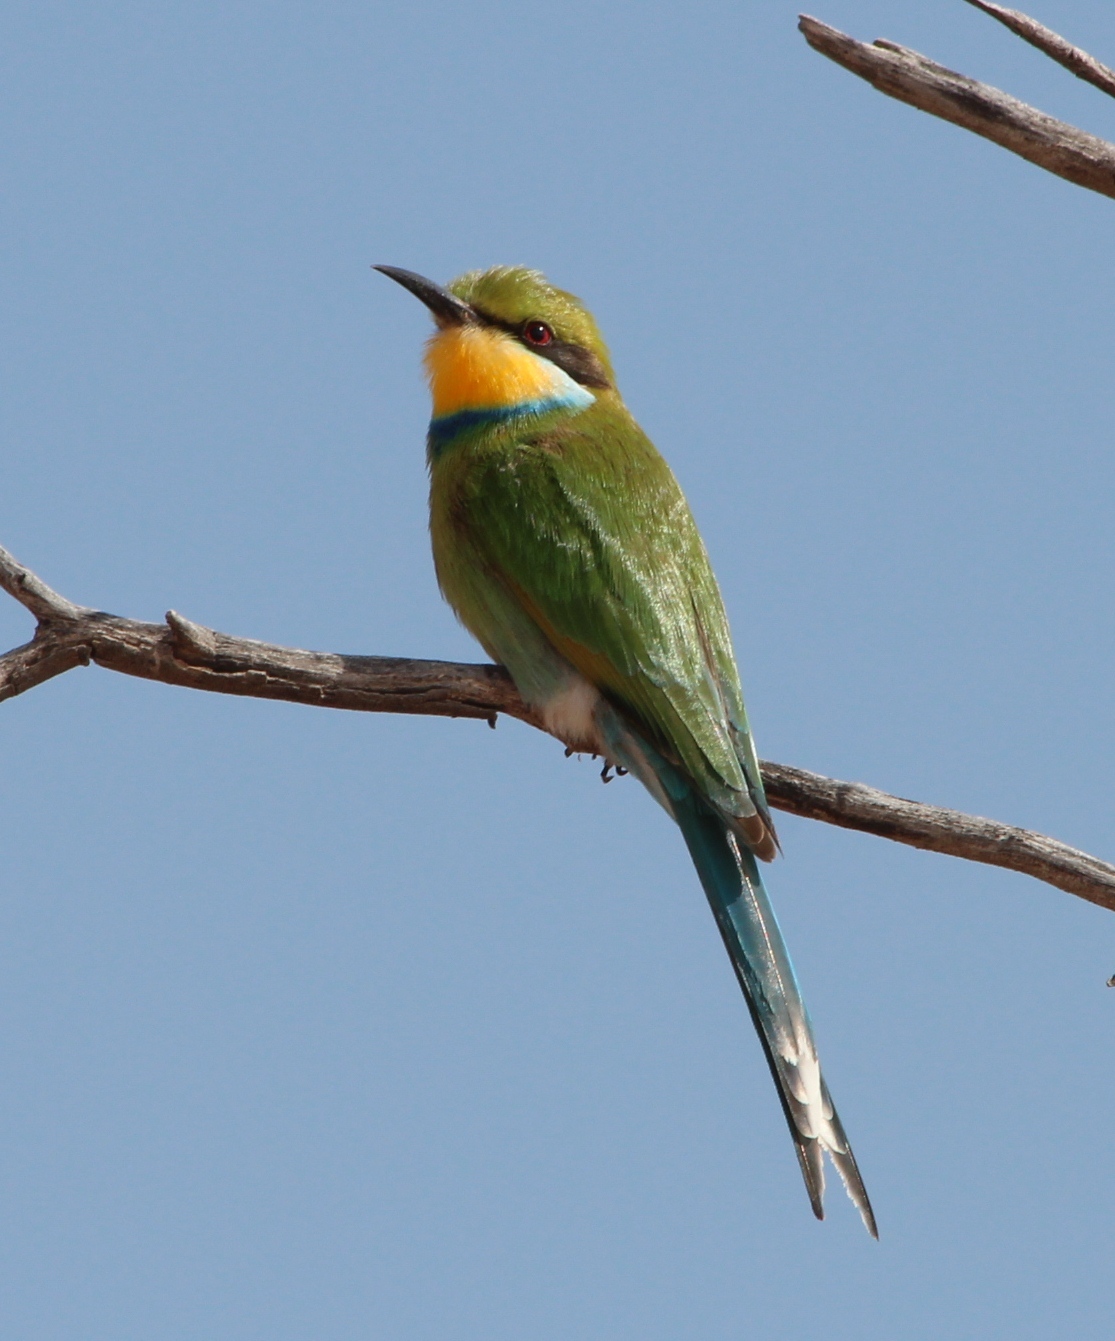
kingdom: Animalia
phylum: Chordata
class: Aves
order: Coraciiformes
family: Meropidae
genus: Merops
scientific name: Merops hirundineus
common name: Swallow-tailed bee-eater
